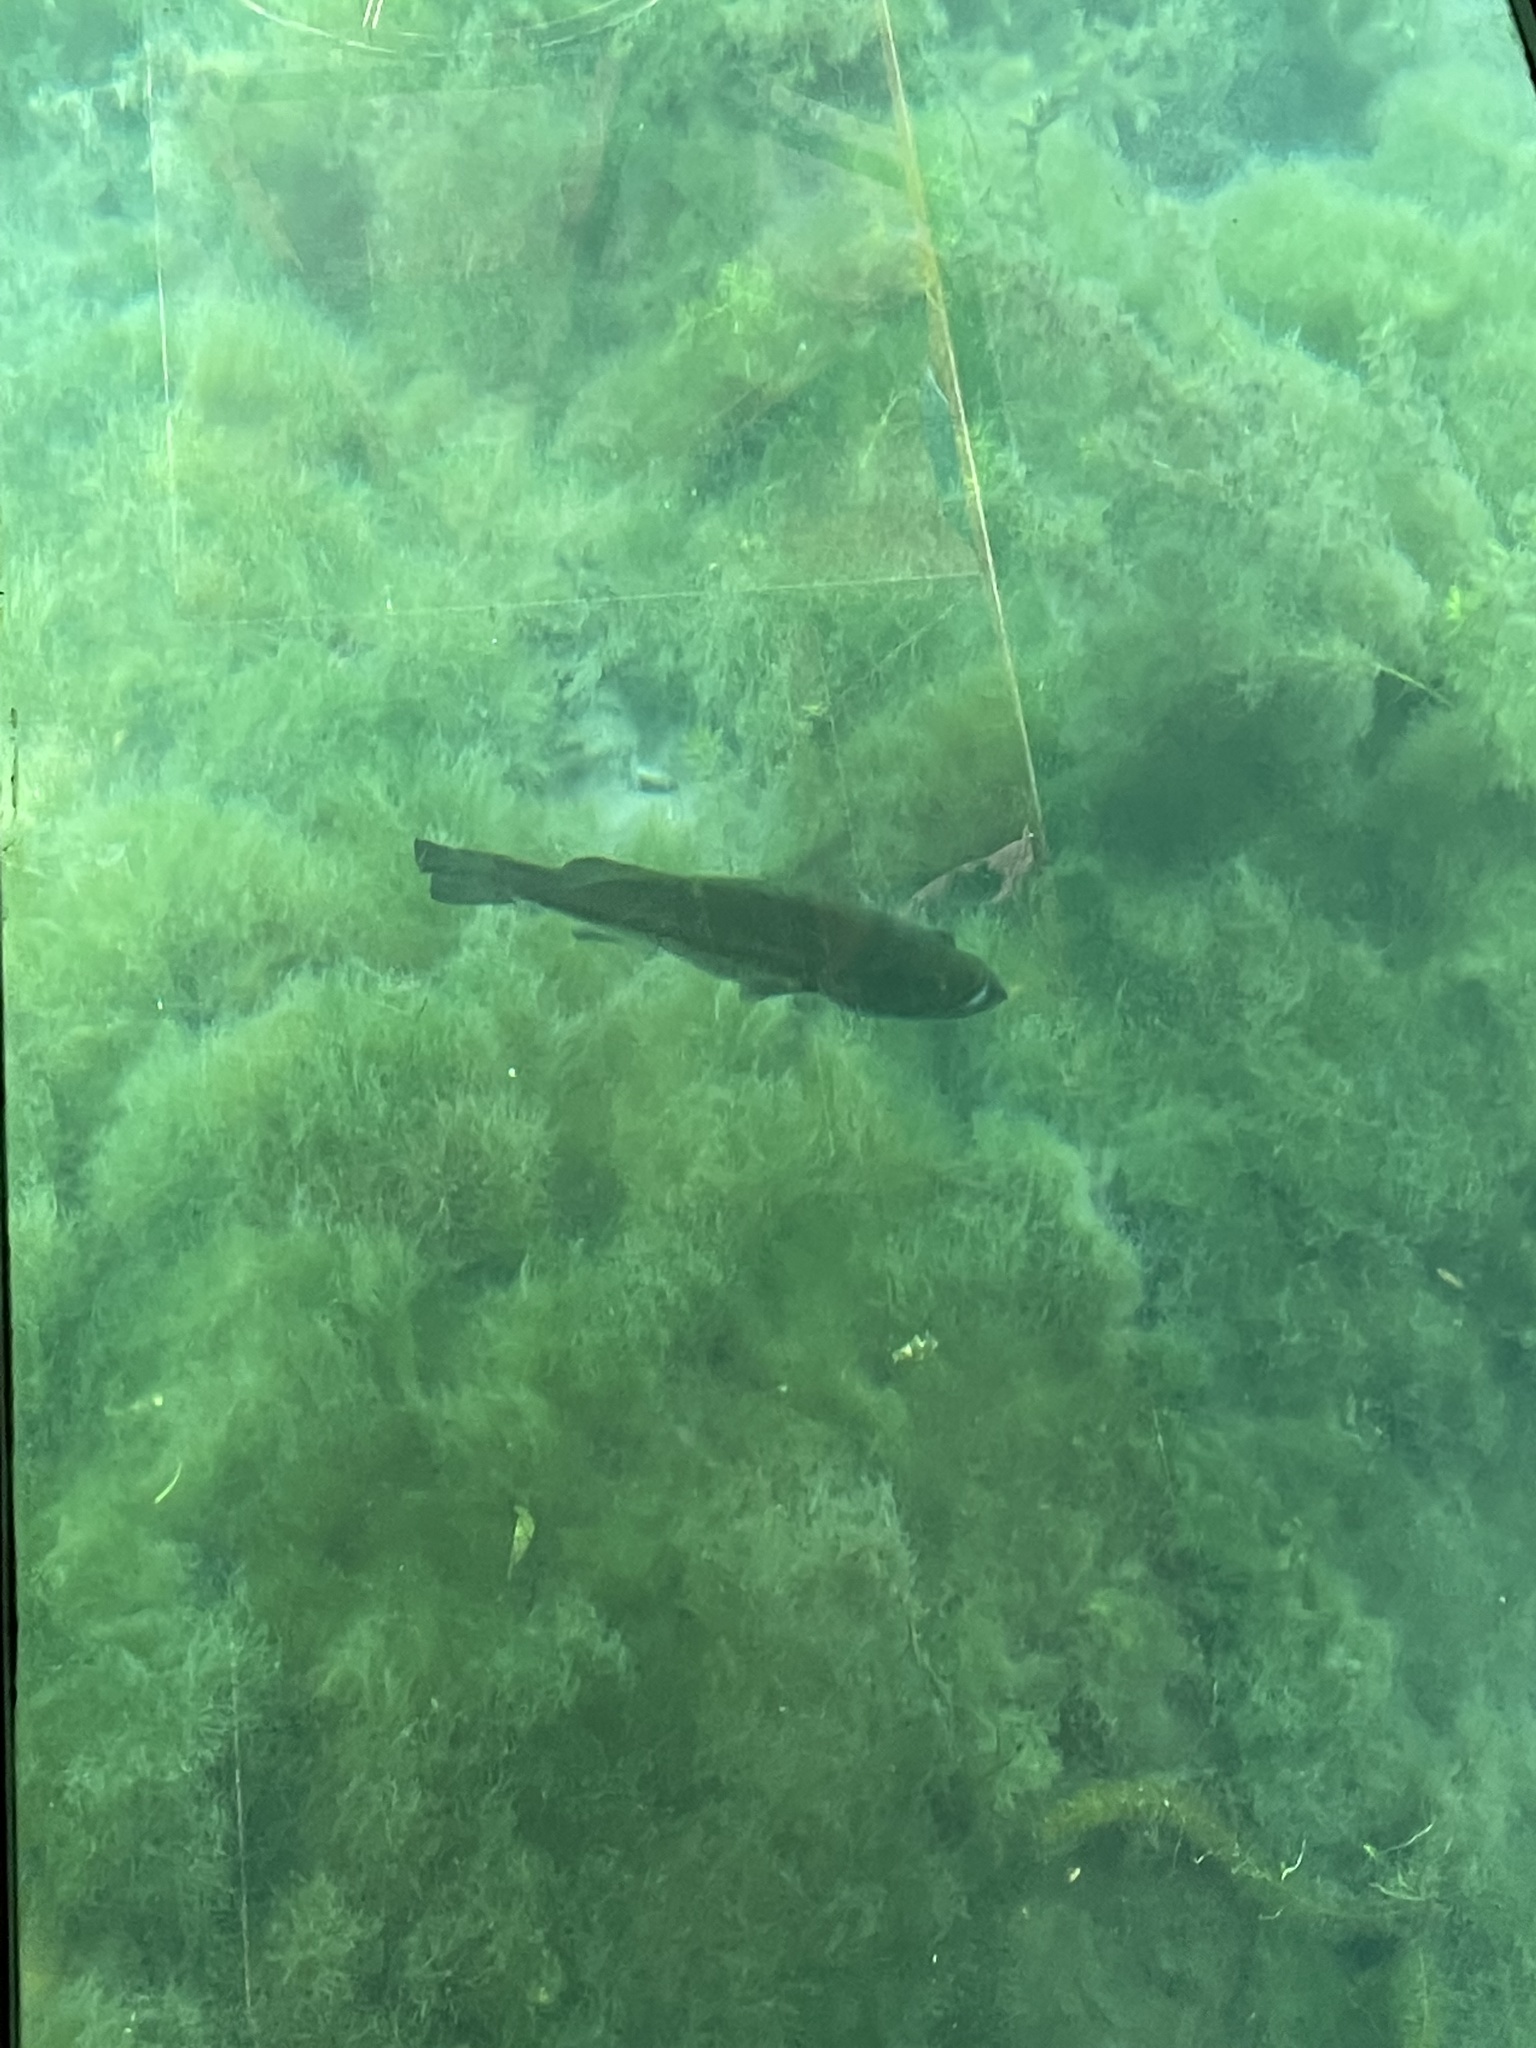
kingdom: Animalia
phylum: Chordata
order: Perciformes
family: Centrarchidae
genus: Micropterus
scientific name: Micropterus
